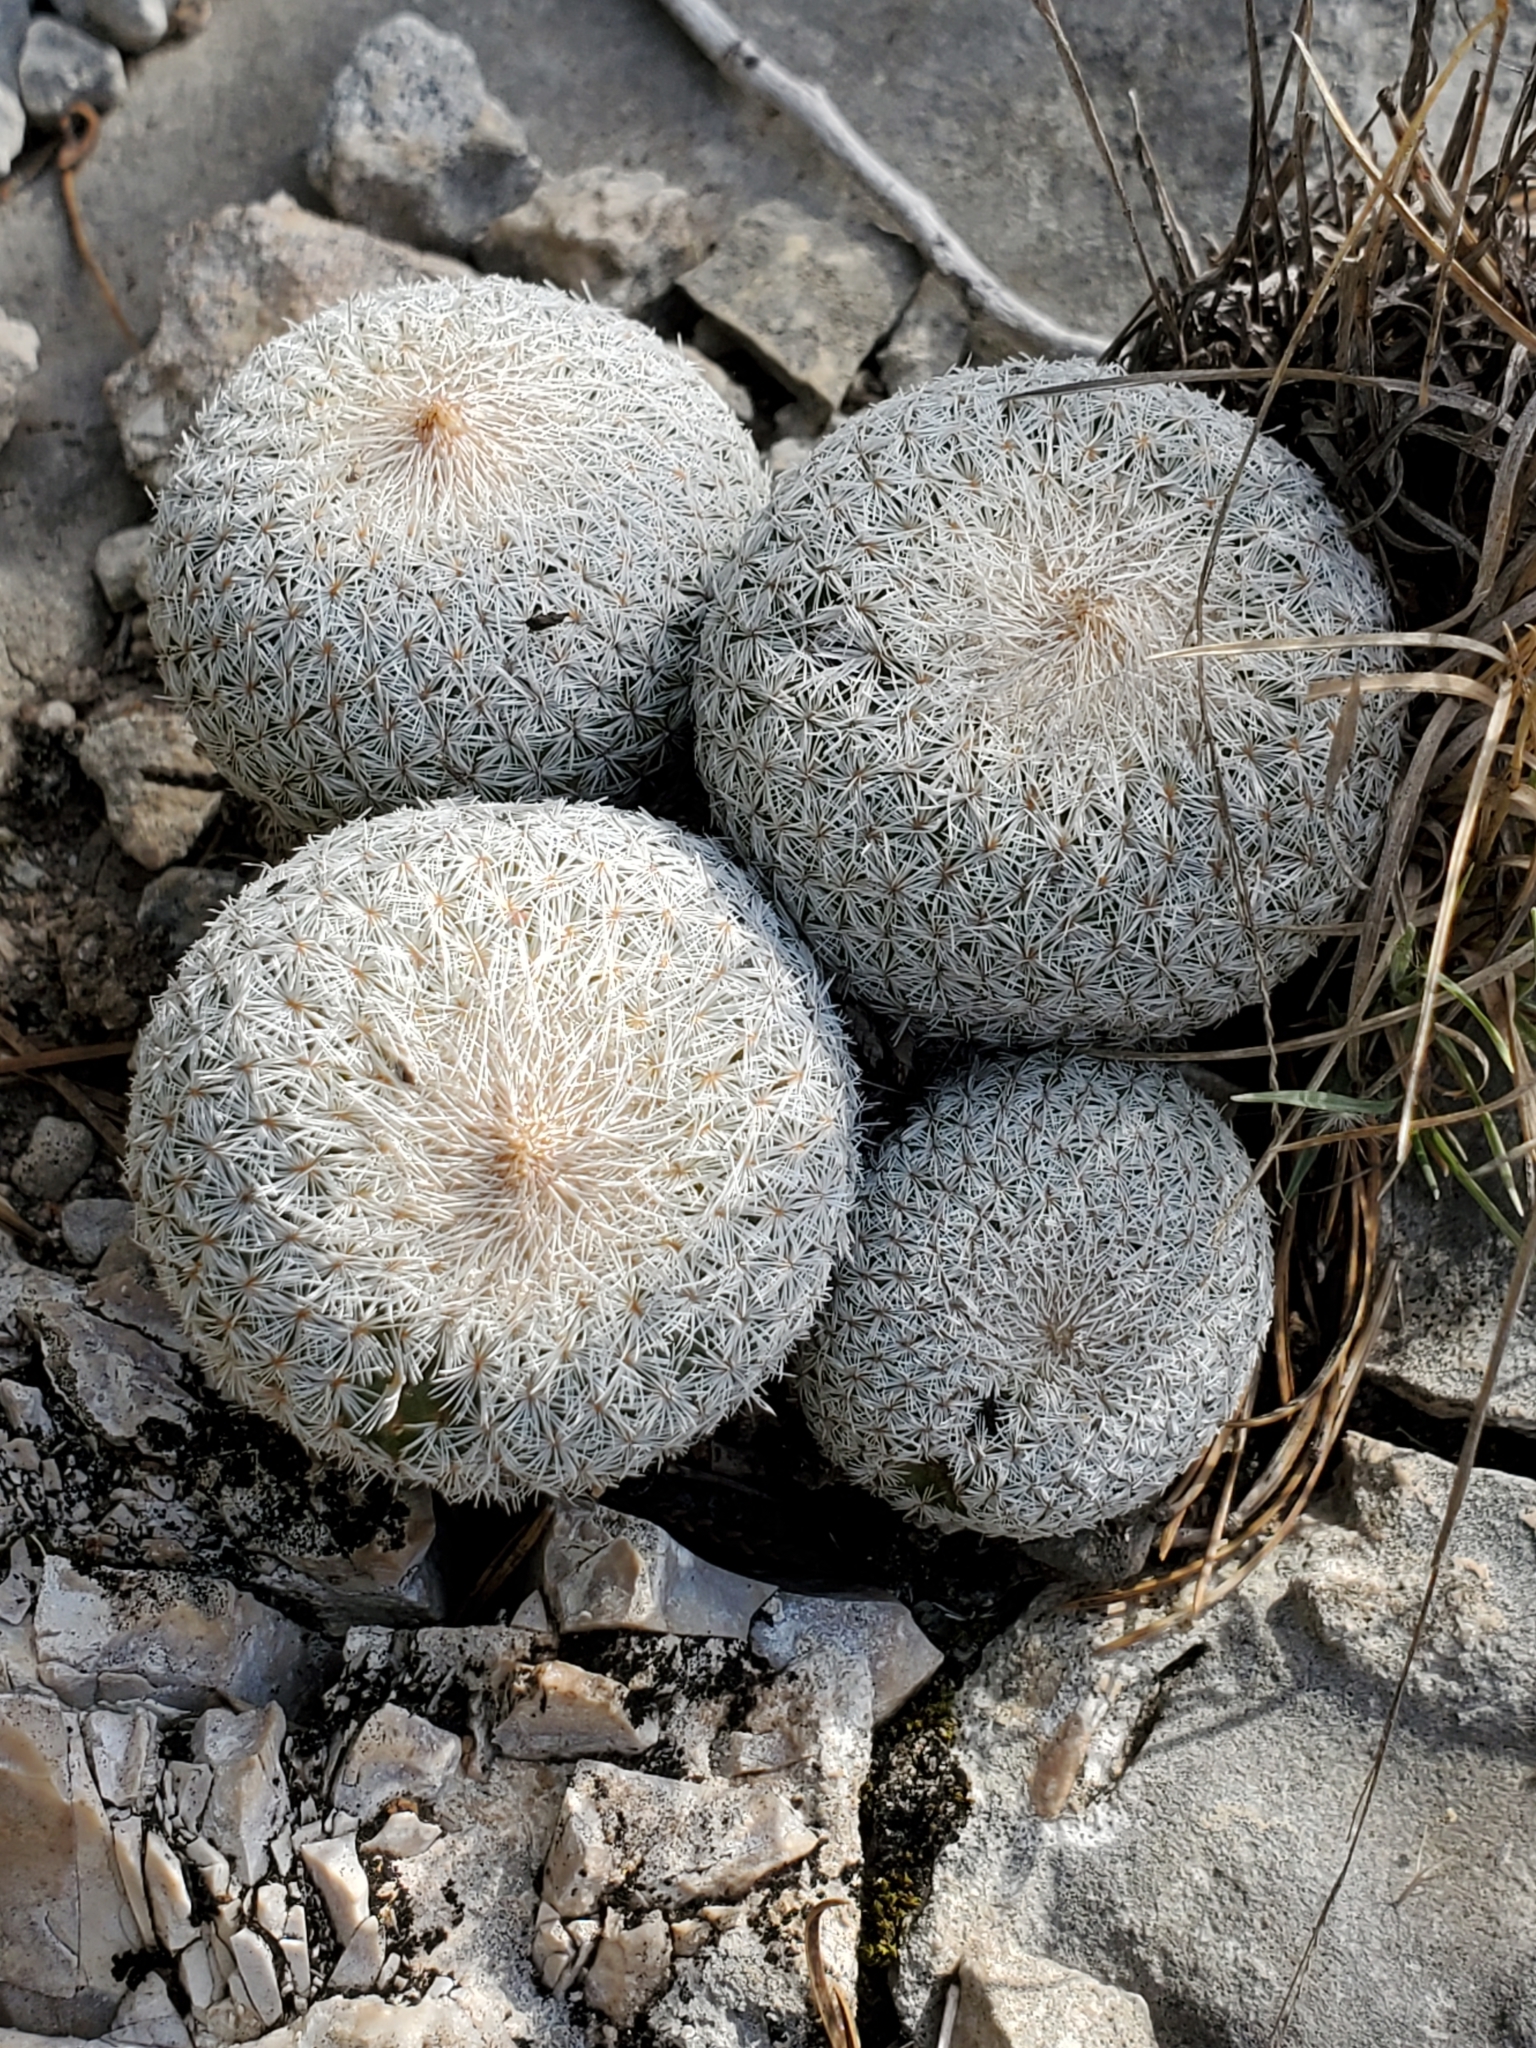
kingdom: Plantae
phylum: Tracheophyta
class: Magnoliopsida
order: Caryophyllales
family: Cactaceae
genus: Epithelantha
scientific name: Epithelantha micromeris
